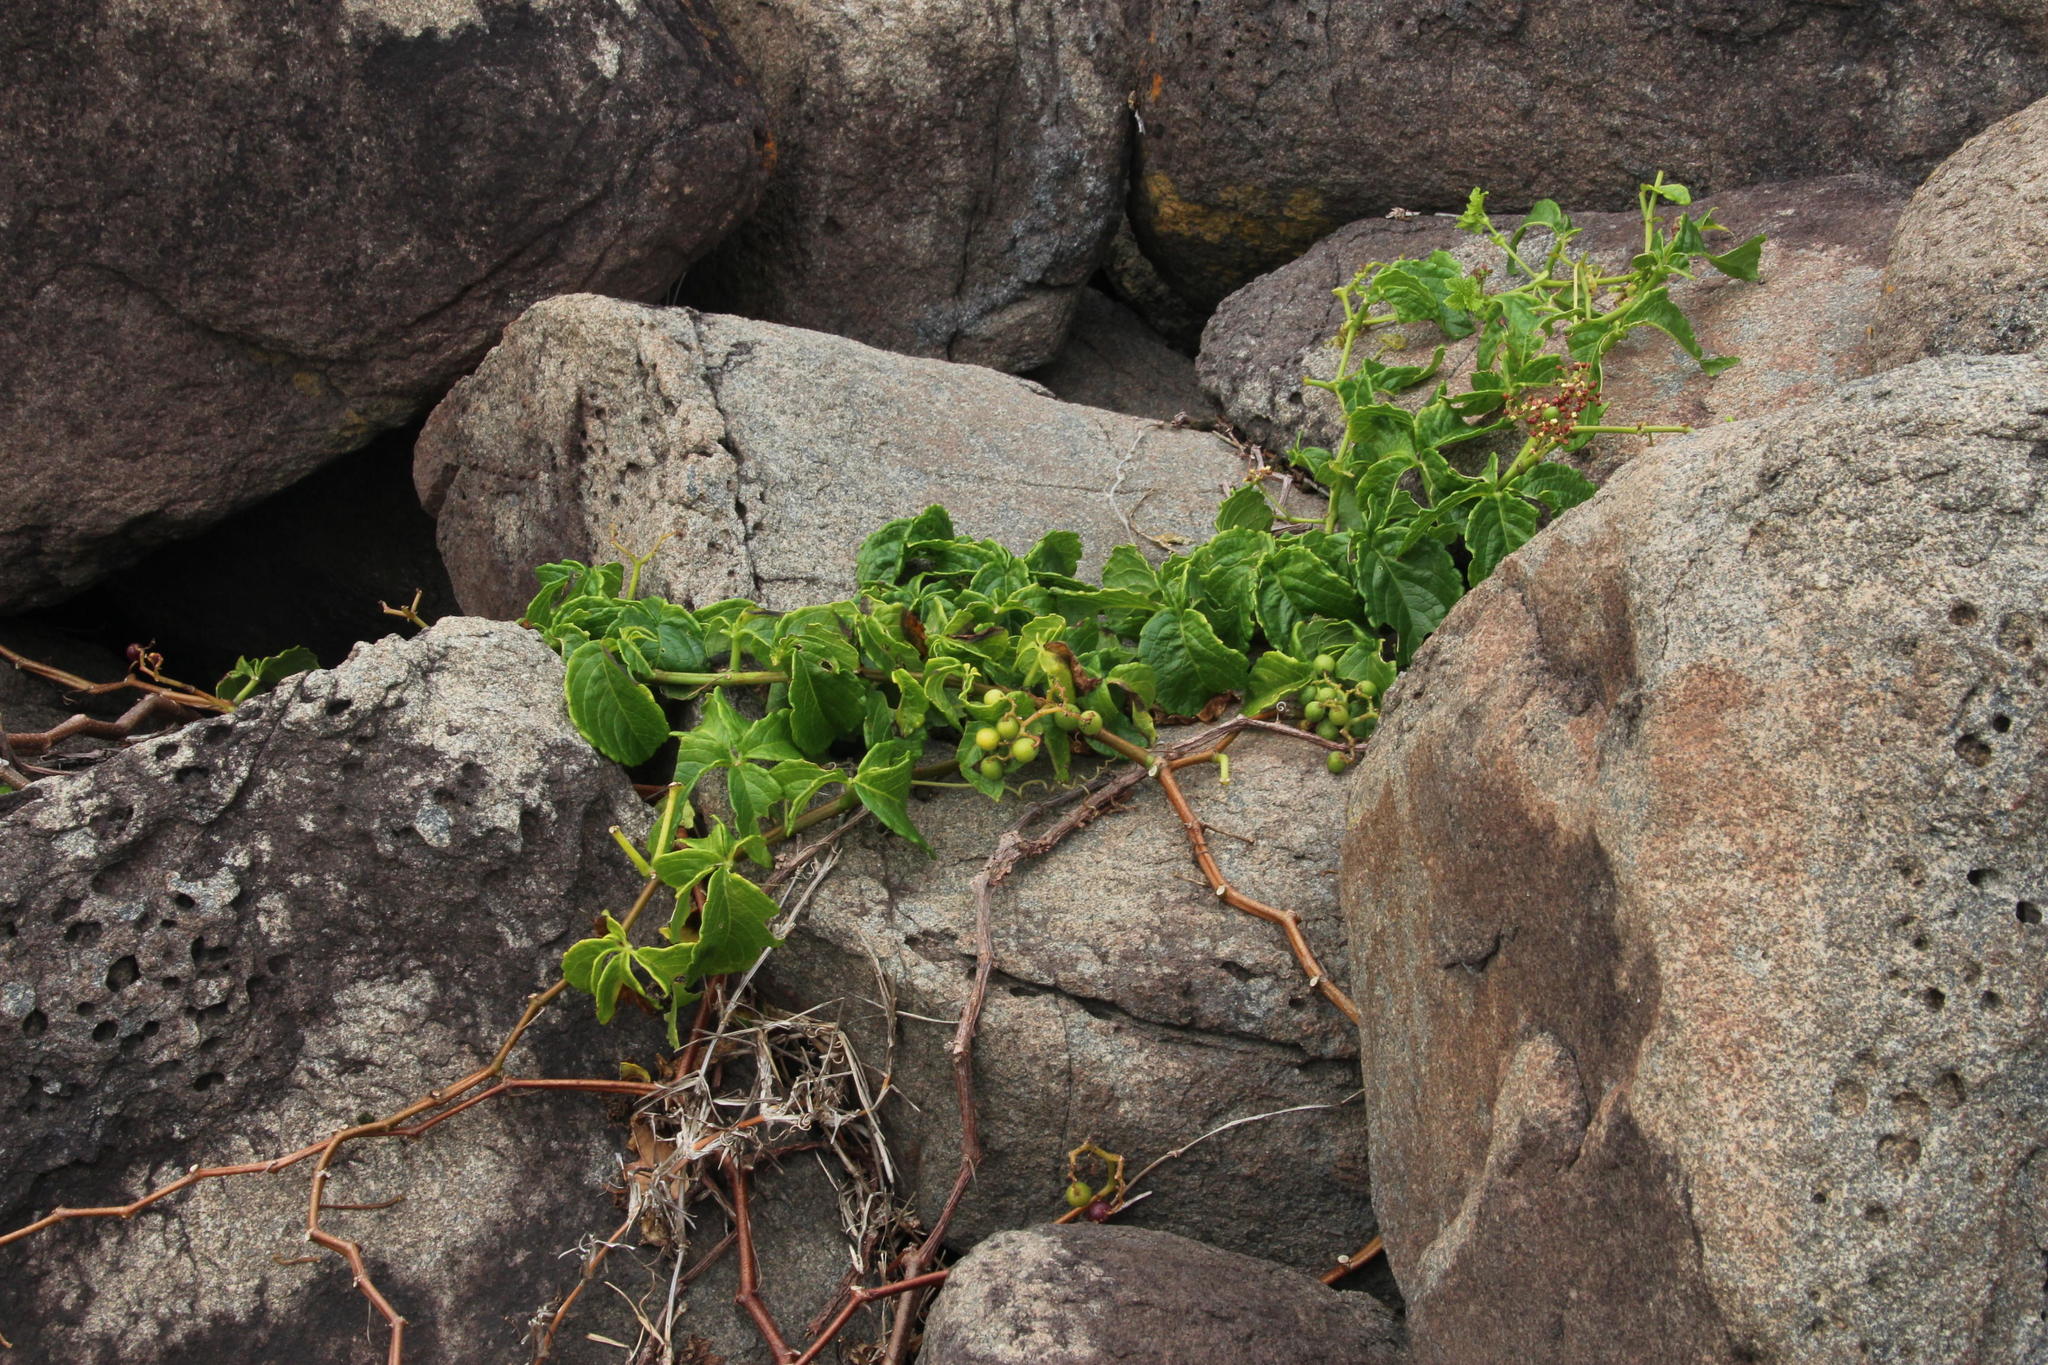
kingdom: Plantae
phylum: Tracheophyta
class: Magnoliopsida
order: Vitales
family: Vitaceae
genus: Cyphostemma
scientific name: Cyphostemma cirrhosum
